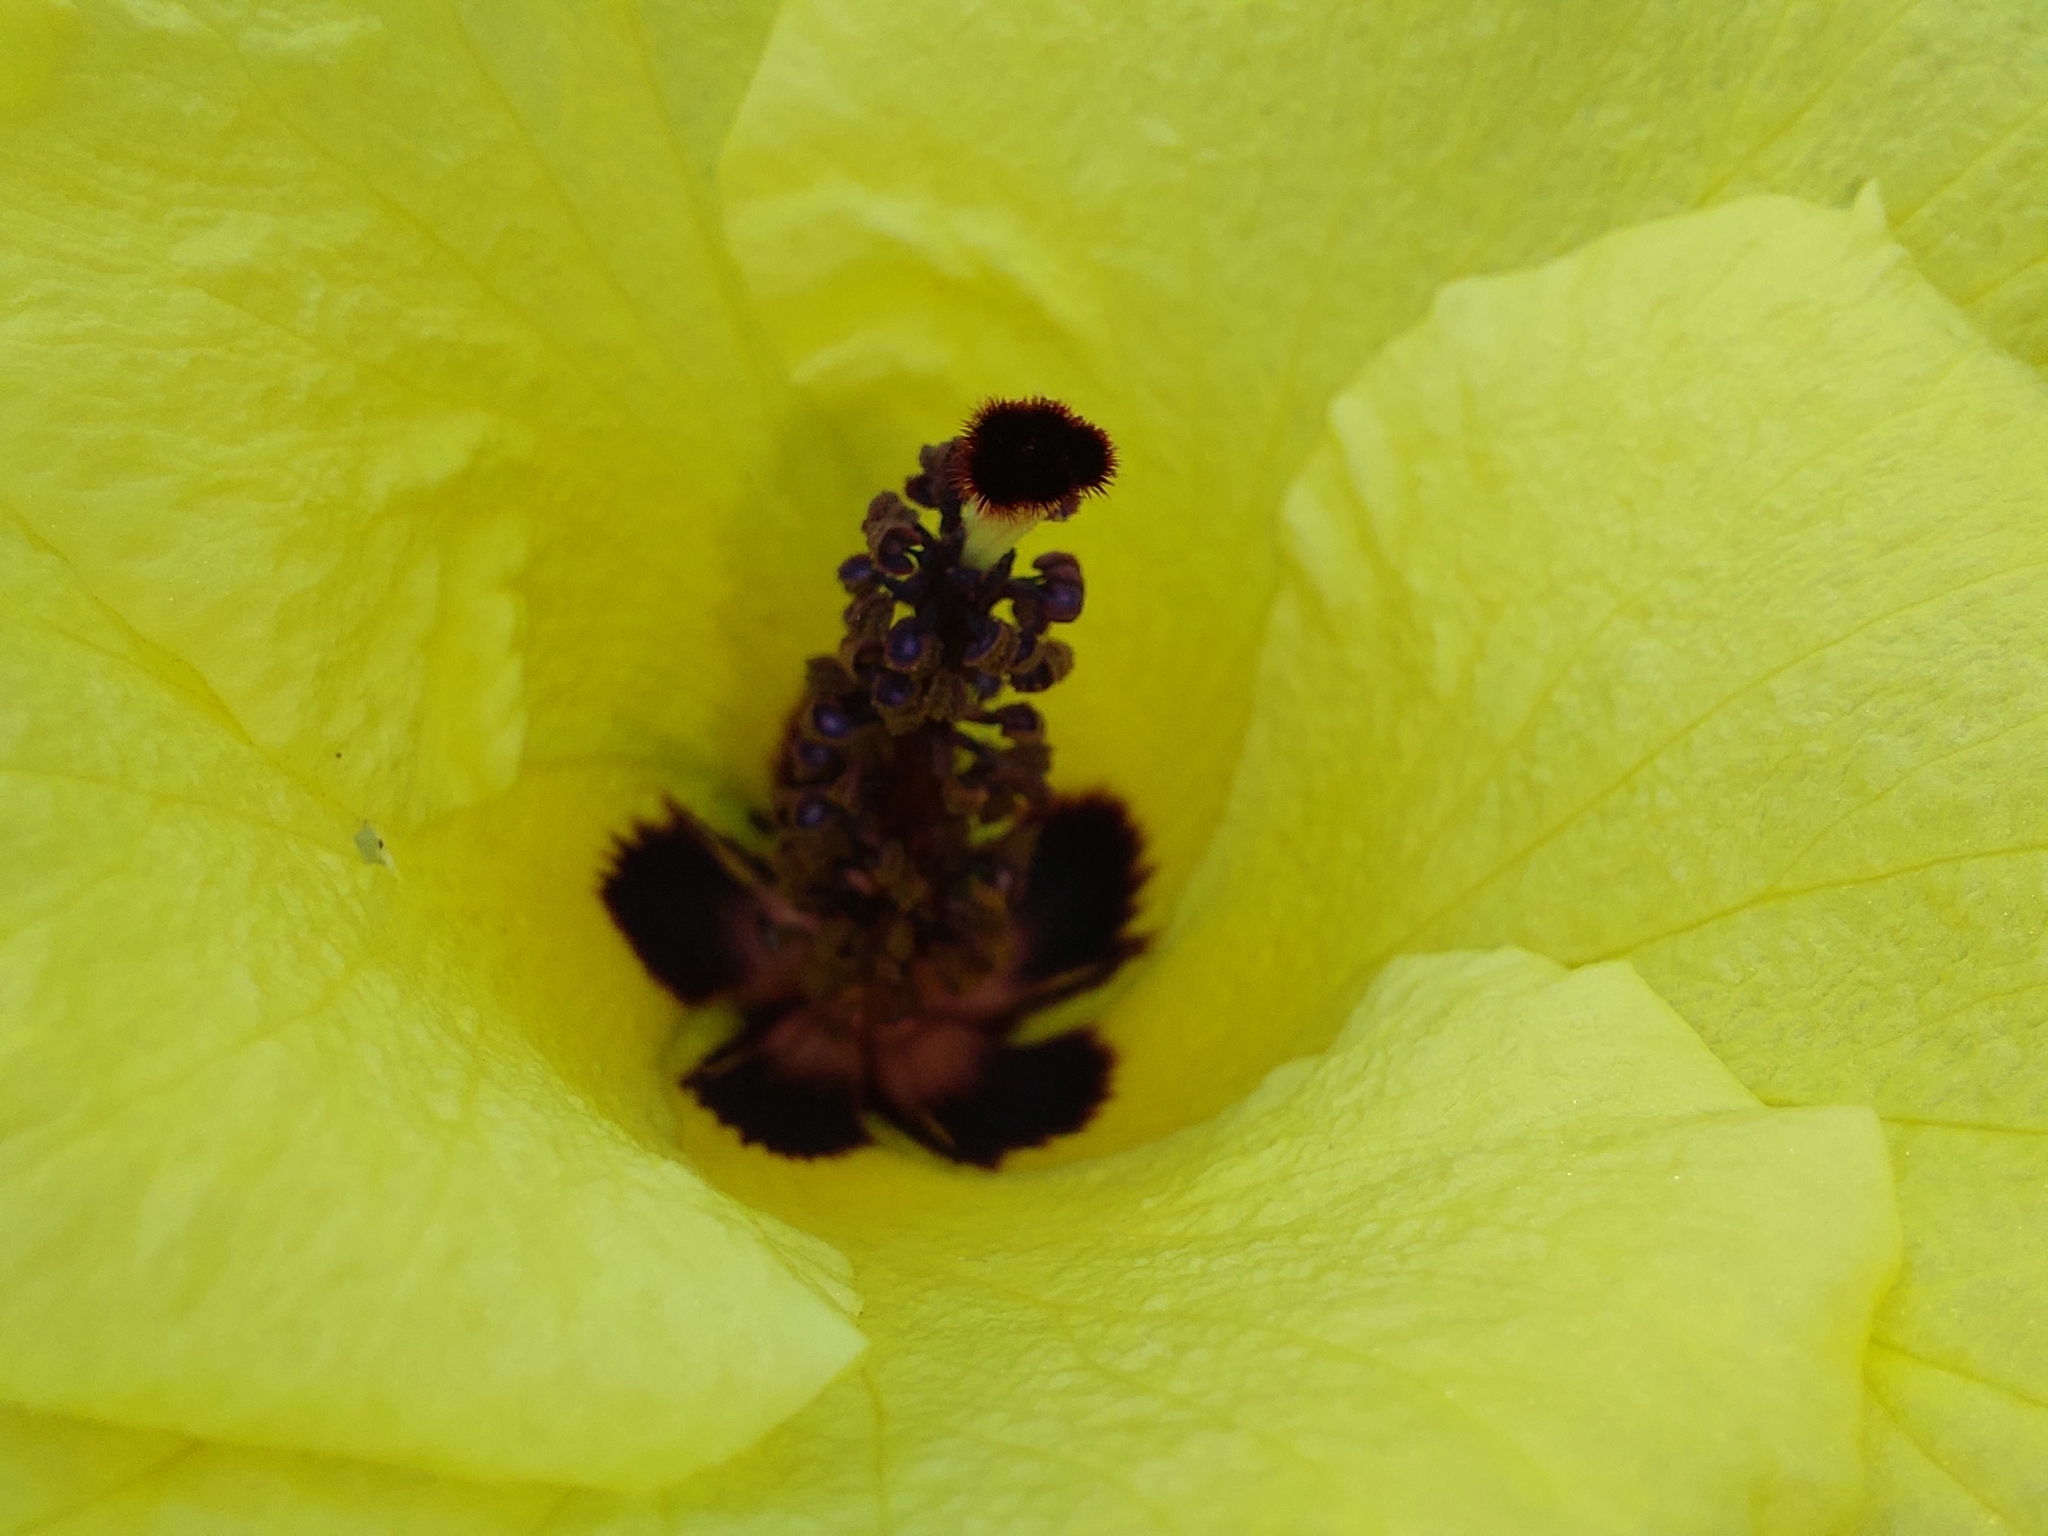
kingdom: Plantae
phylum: Tracheophyta
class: Magnoliopsida
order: Malvales
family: Malvaceae
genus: Hibiscus
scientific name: Hibiscus ludwigii
